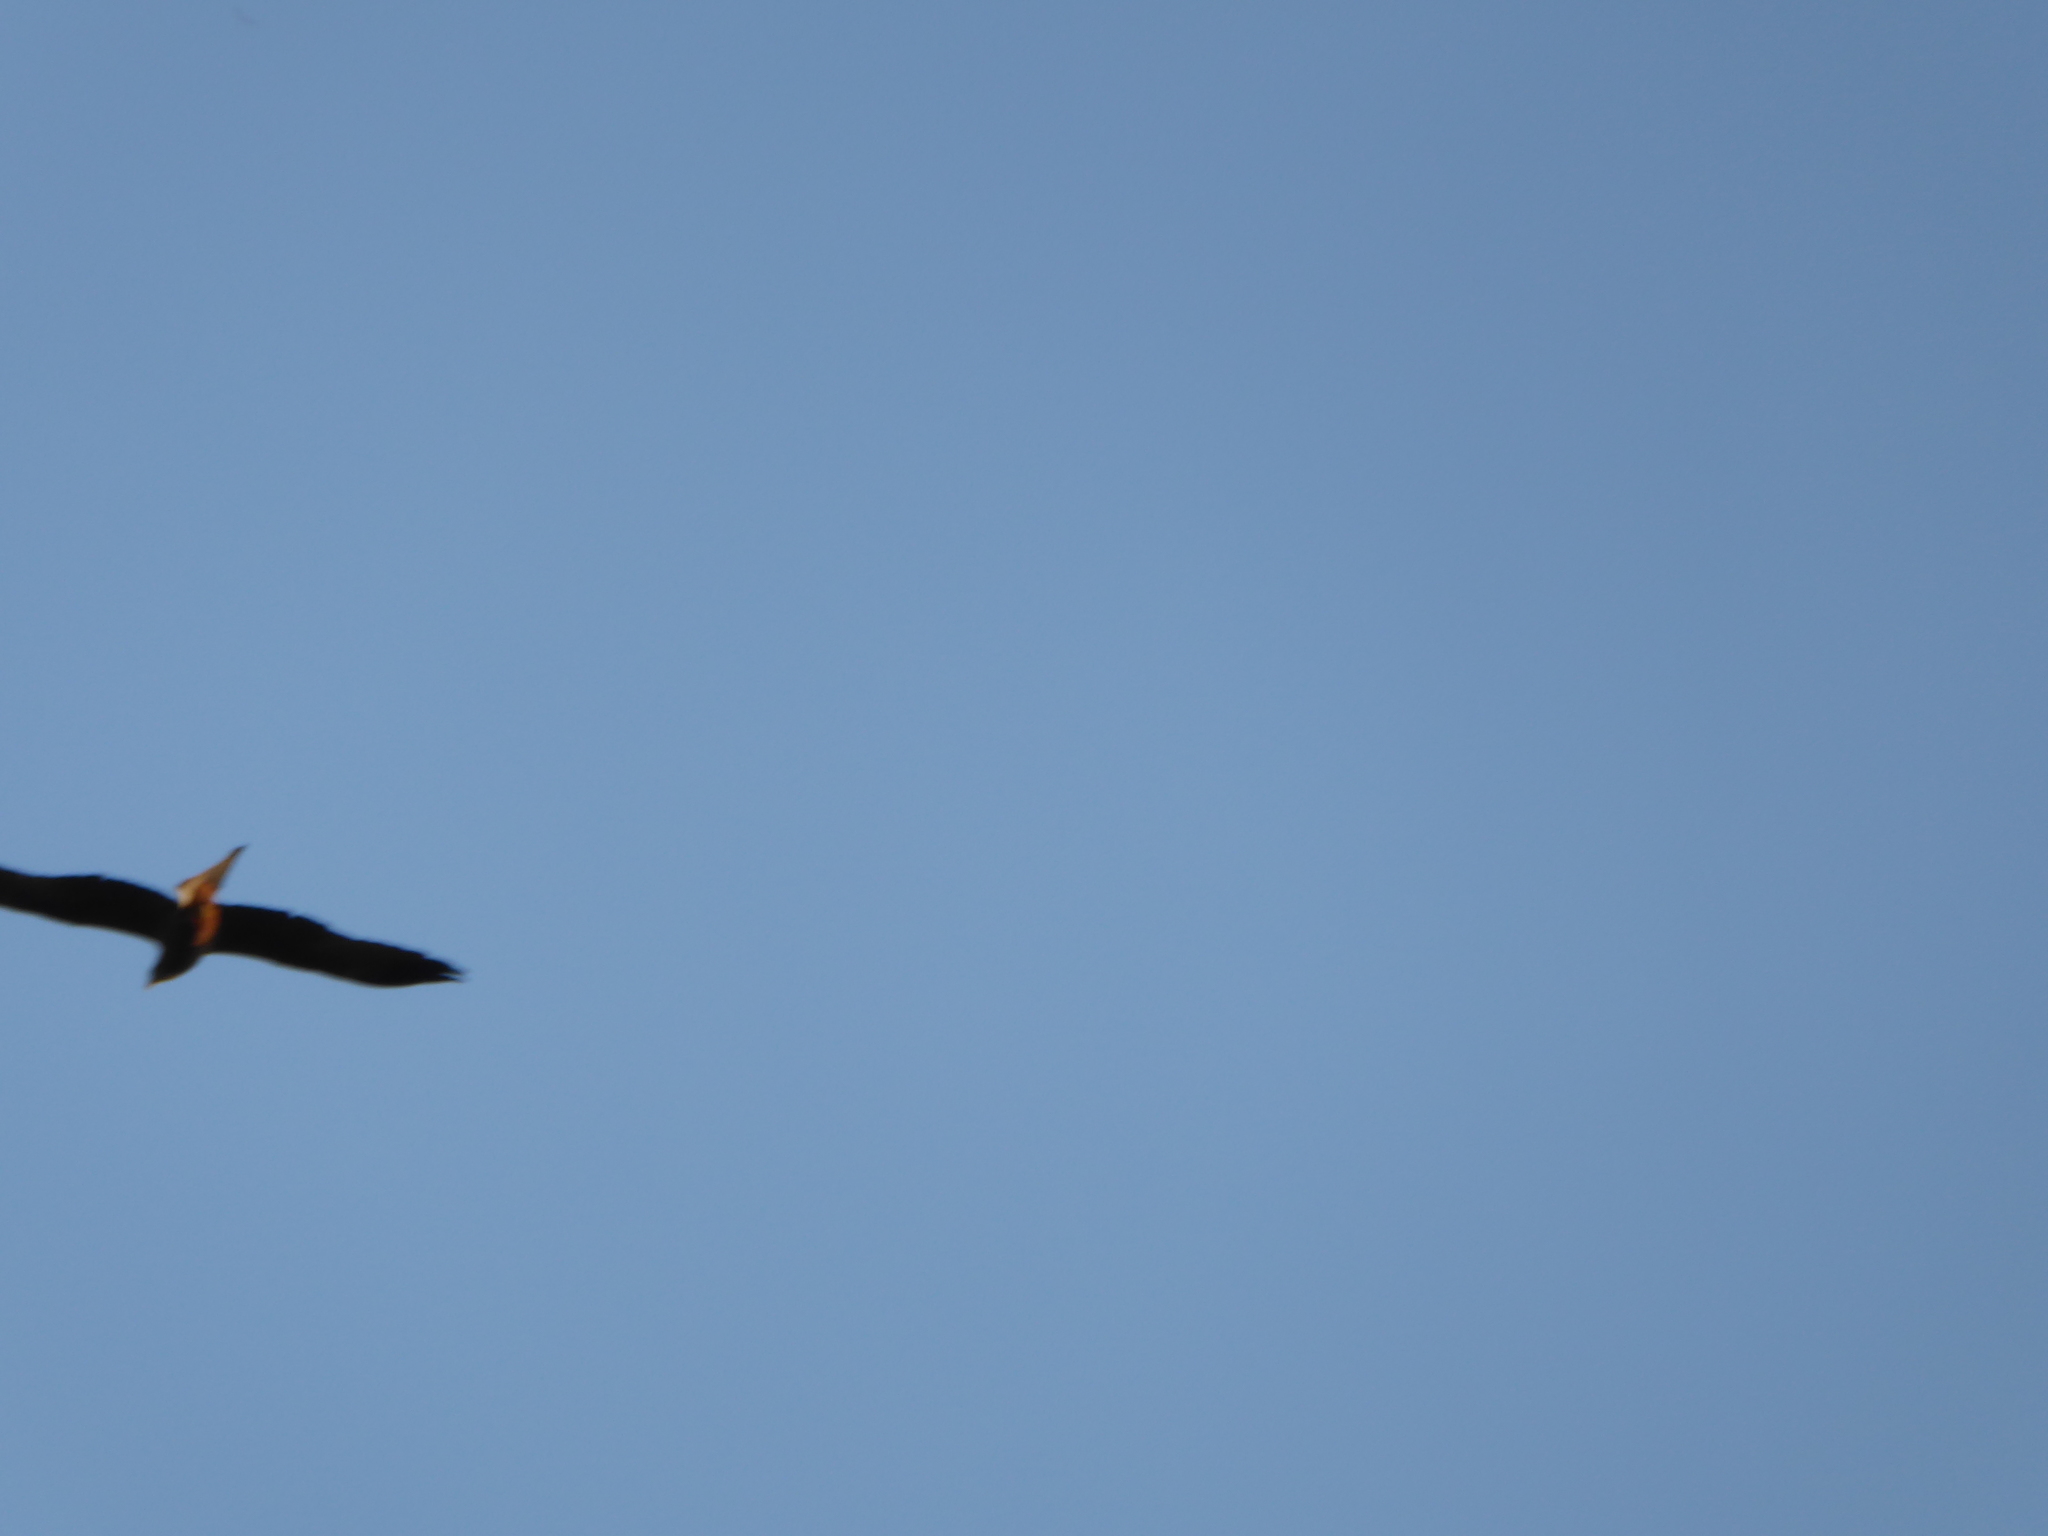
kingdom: Animalia
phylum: Chordata
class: Aves
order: Accipitriformes
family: Accipitridae
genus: Milvus
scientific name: Milvus migrans
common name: Black kite
